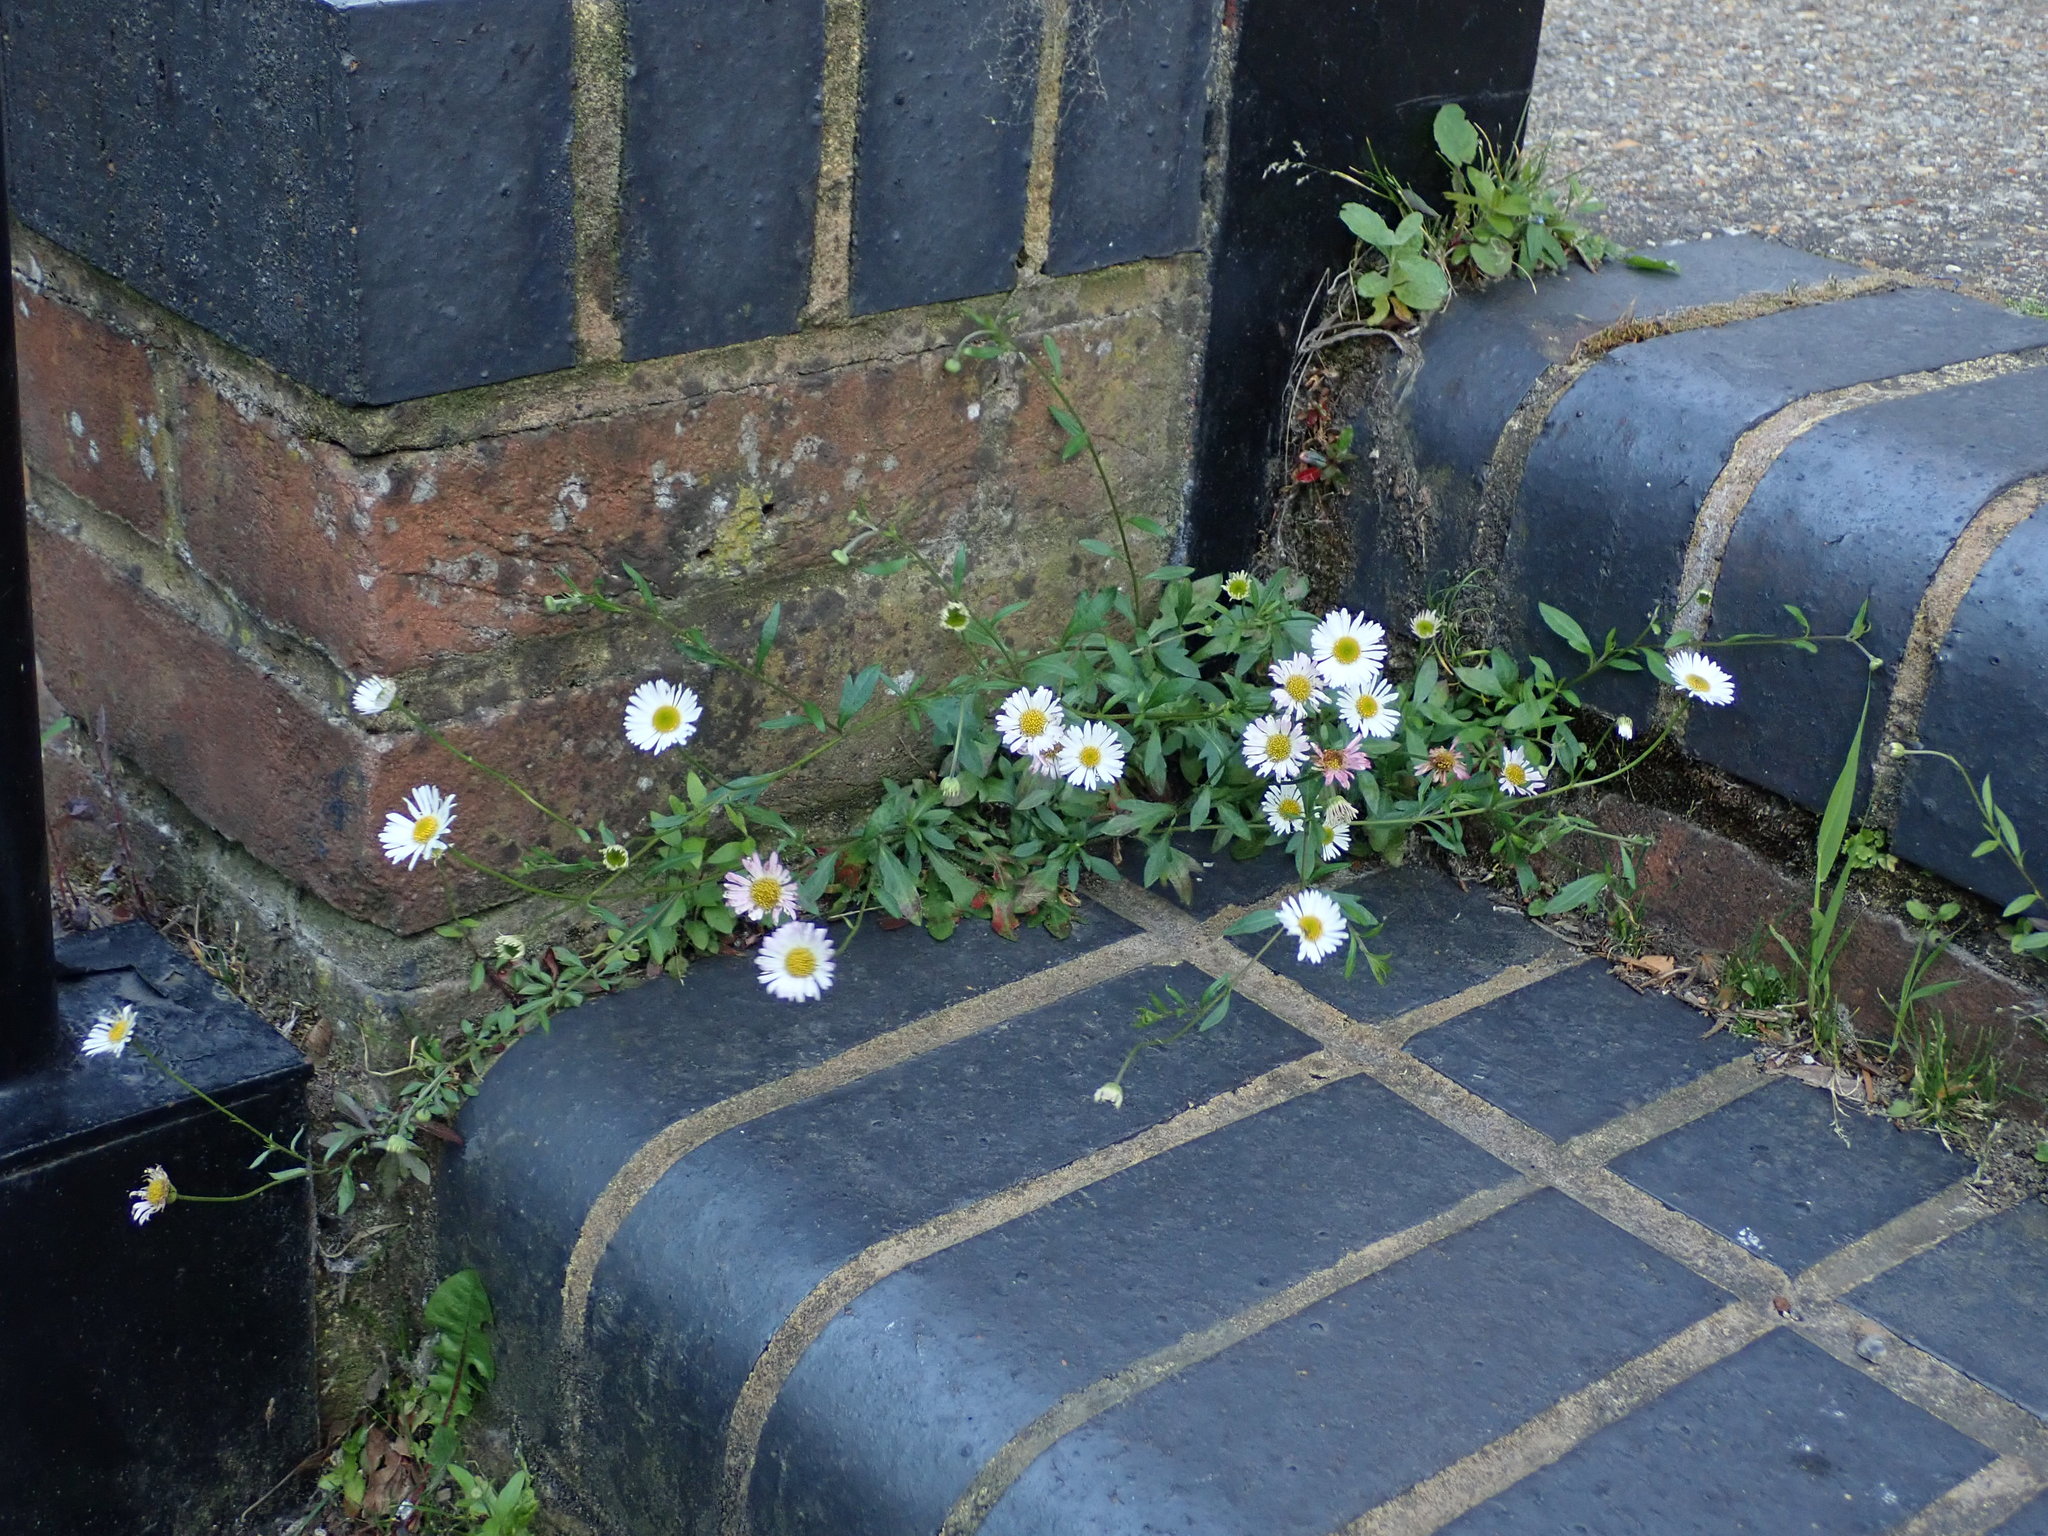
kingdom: Plantae
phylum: Tracheophyta
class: Magnoliopsida
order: Asterales
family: Asteraceae
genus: Erigeron
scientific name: Erigeron karvinskianus
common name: Mexican fleabane
